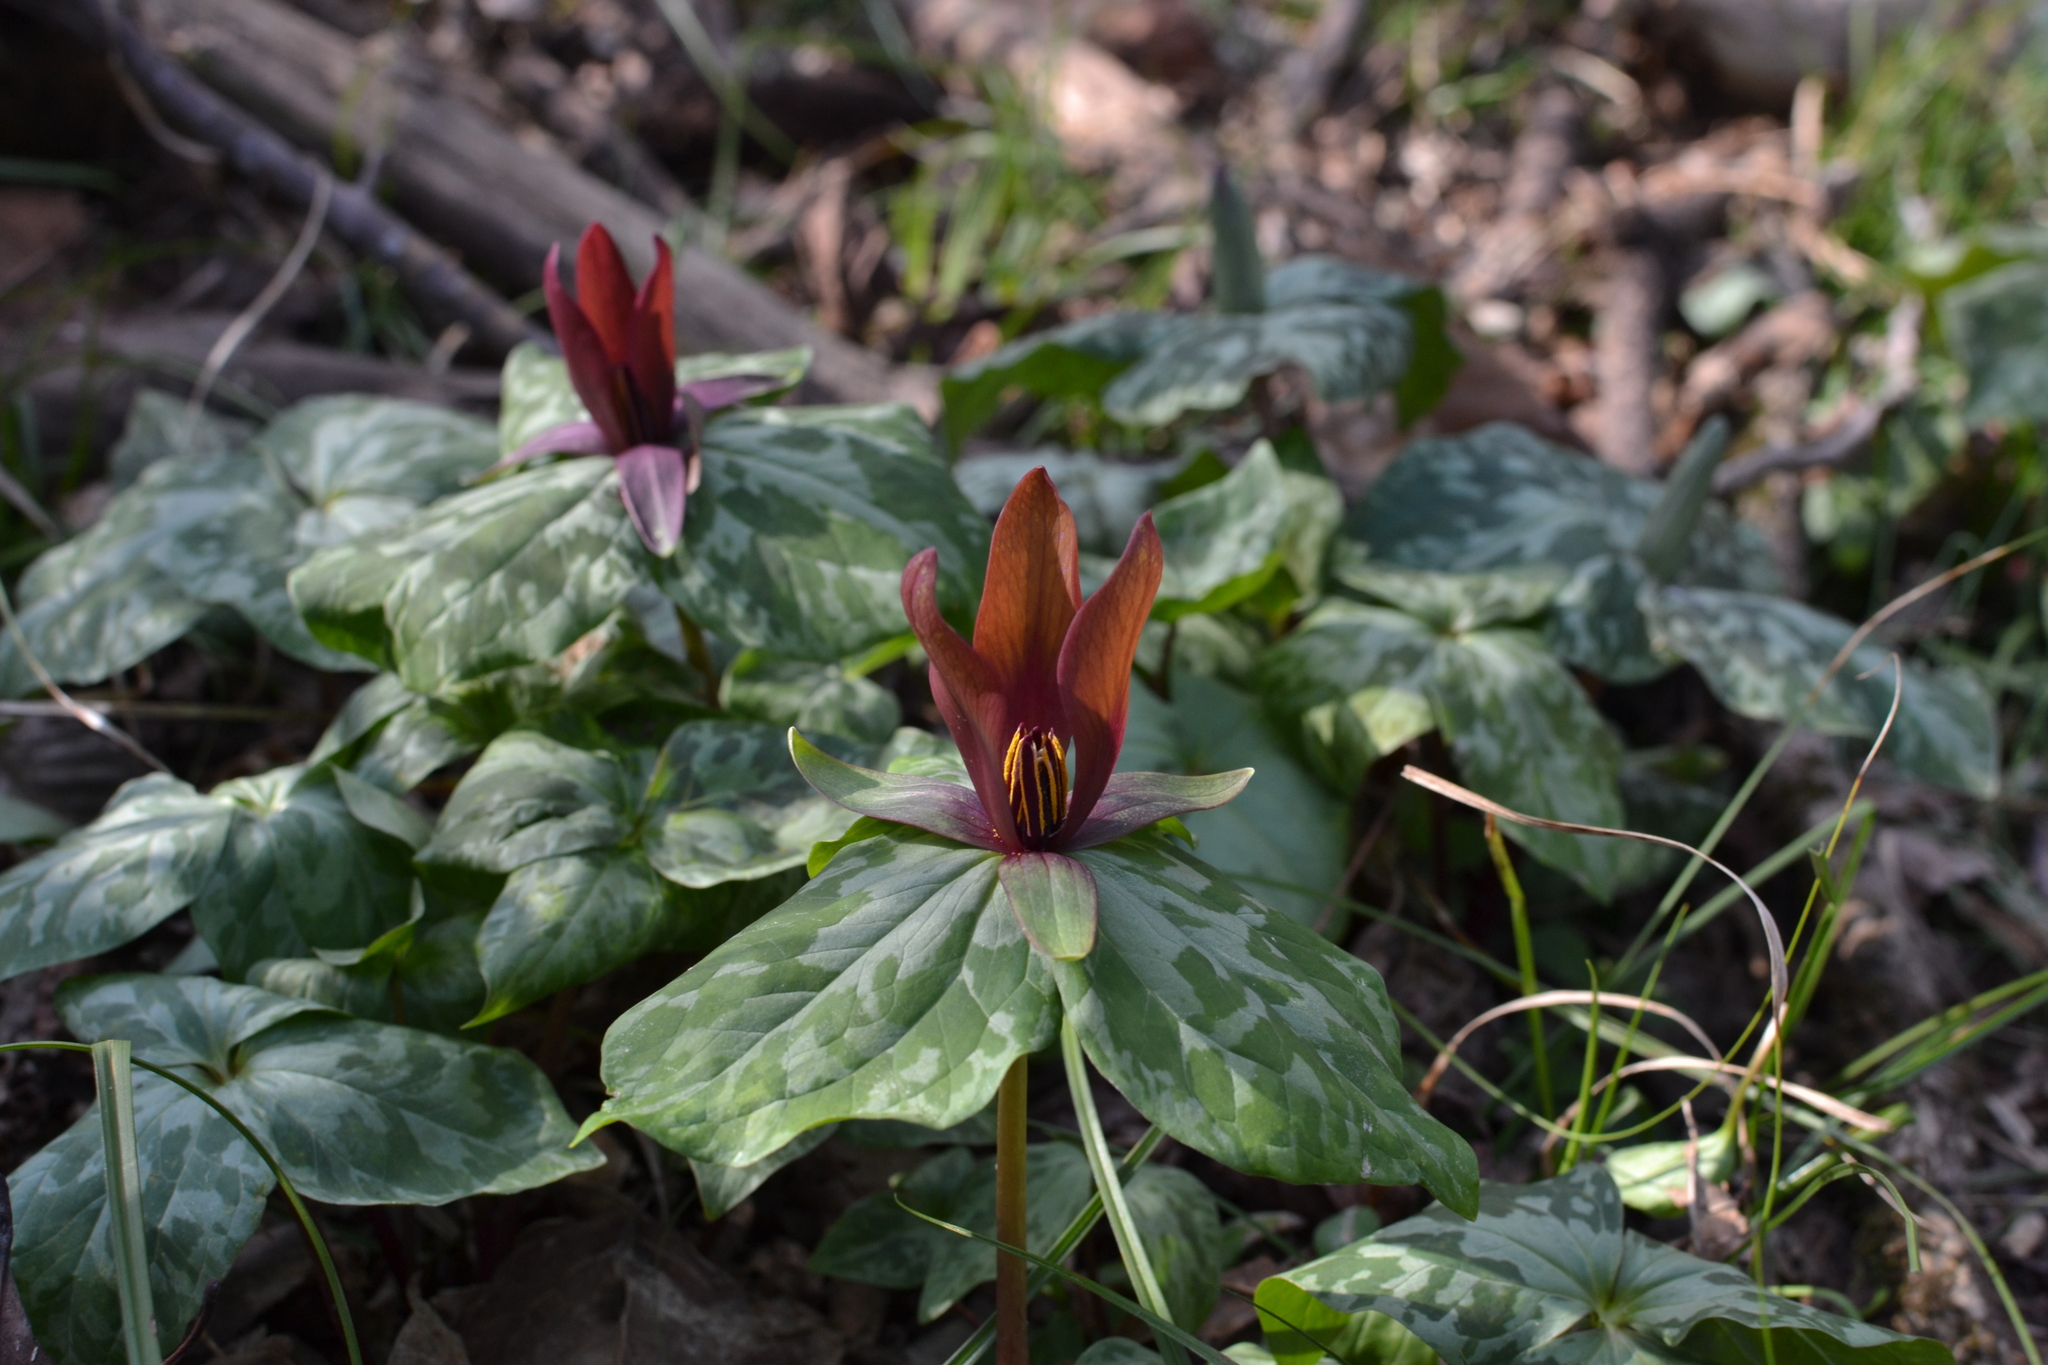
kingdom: Plantae
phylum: Tracheophyta
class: Liliopsida
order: Liliales
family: Melanthiaceae
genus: Trillium
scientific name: Trillium cuneatum
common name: Cuneate trillium
